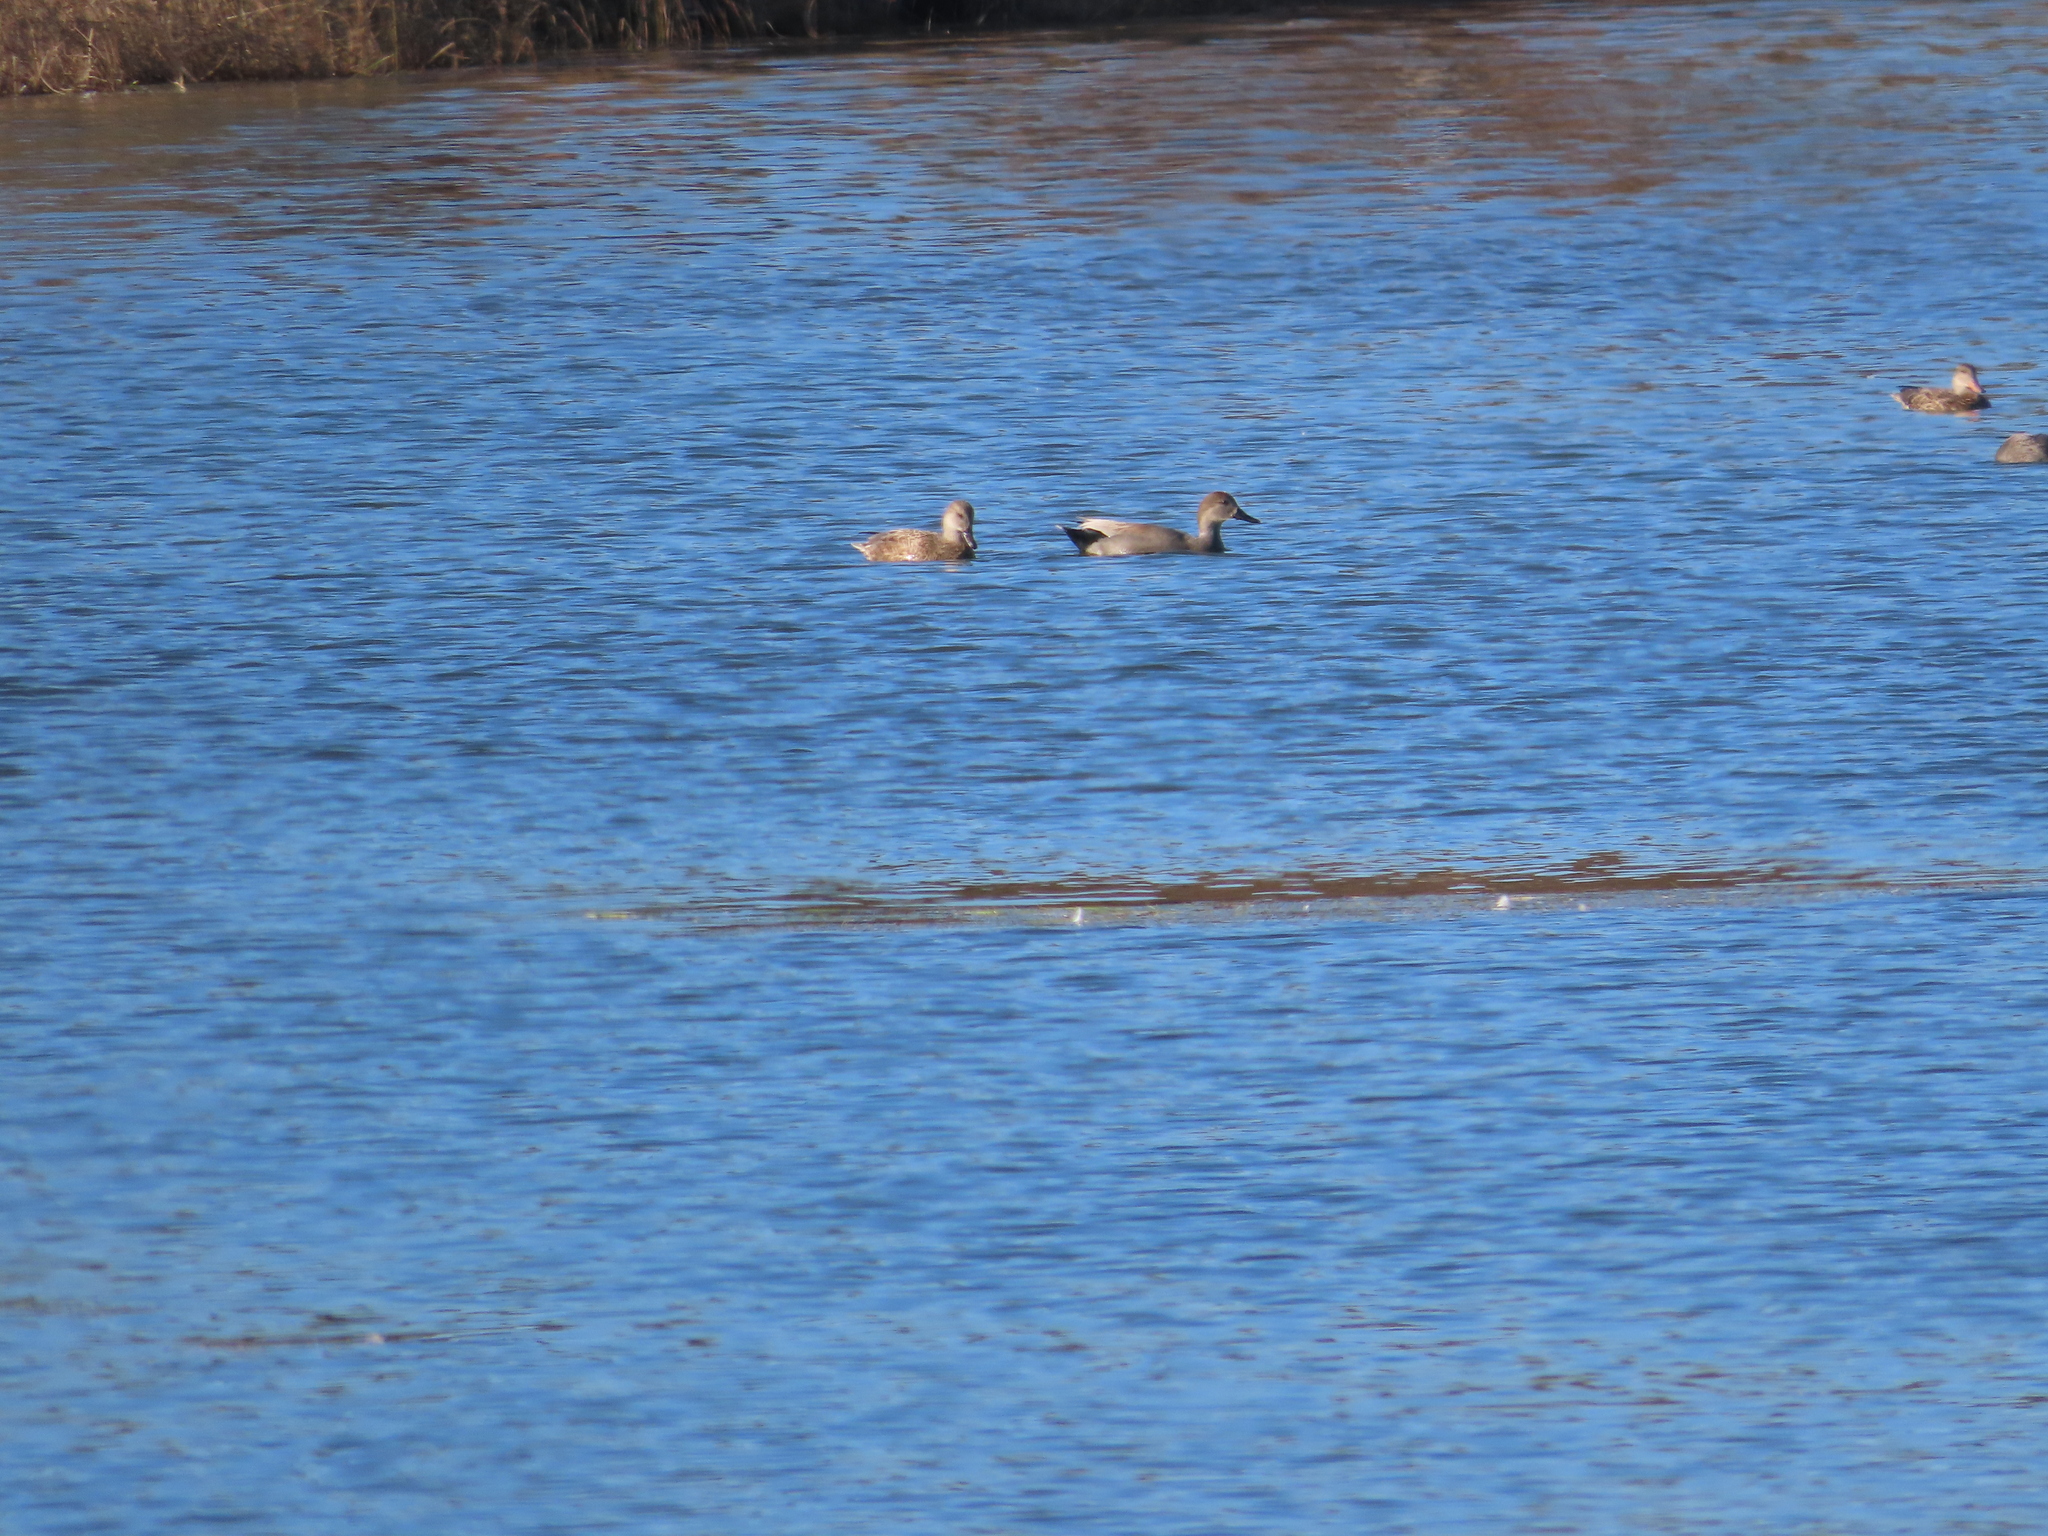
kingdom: Animalia
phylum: Chordata
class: Aves
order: Anseriformes
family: Anatidae
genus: Mareca
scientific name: Mareca strepera
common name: Gadwall
